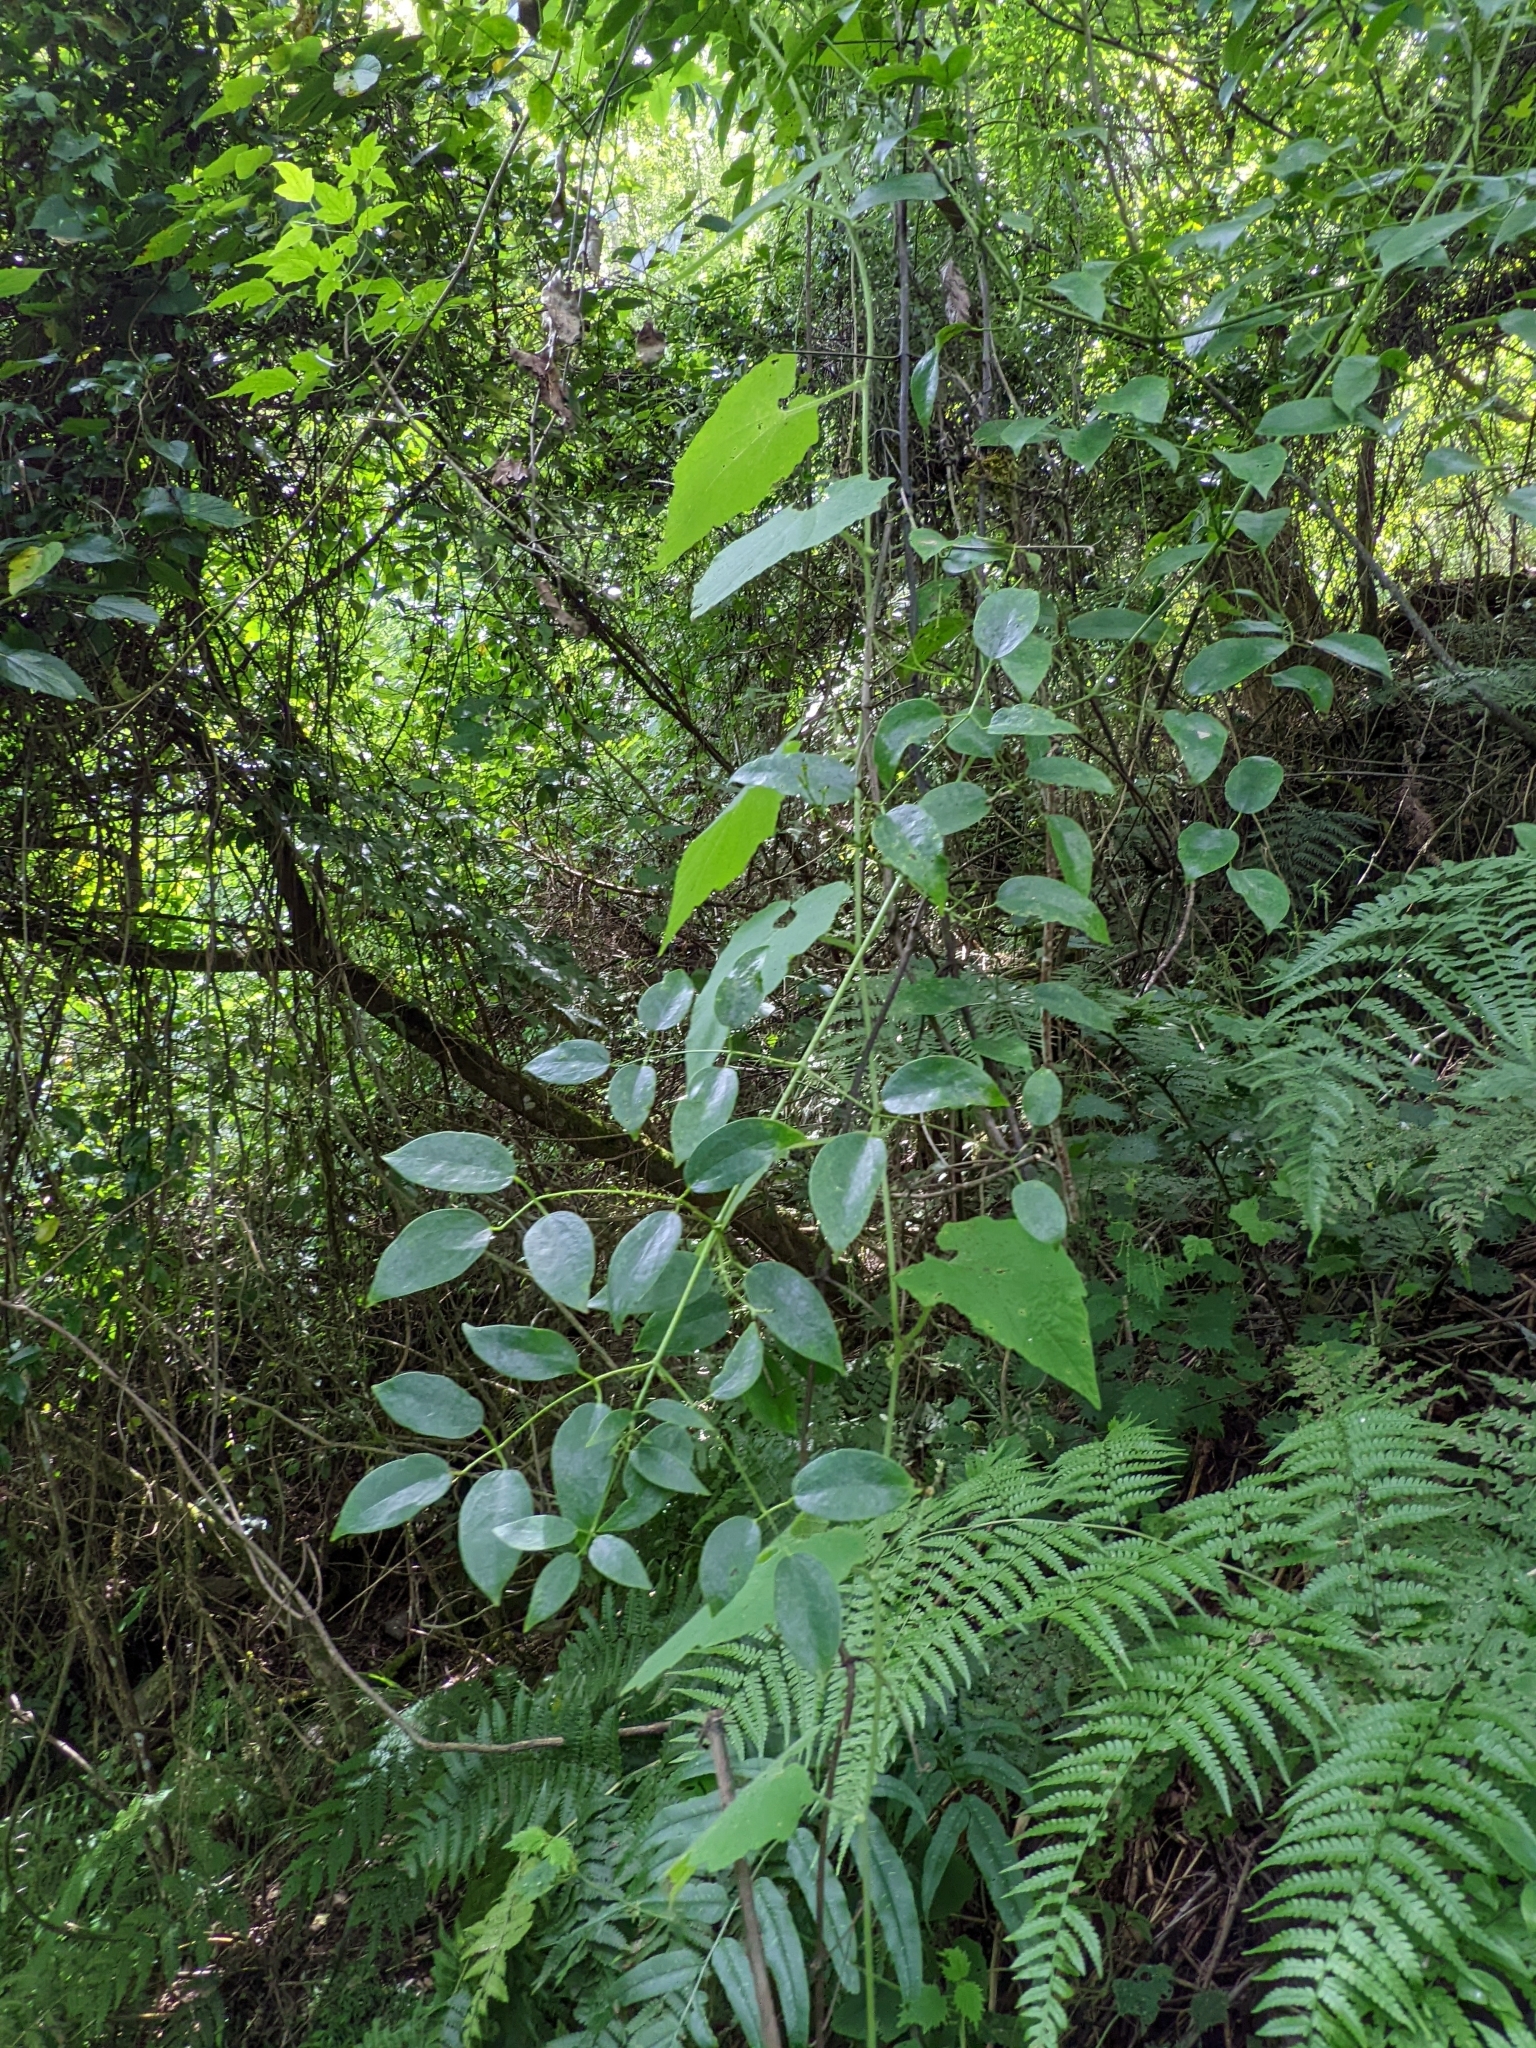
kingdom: Plantae
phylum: Tracheophyta
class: Magnoliopsida
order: Ranunculales
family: Ranunculaceae
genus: Clematis
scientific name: Clematis uncinata
